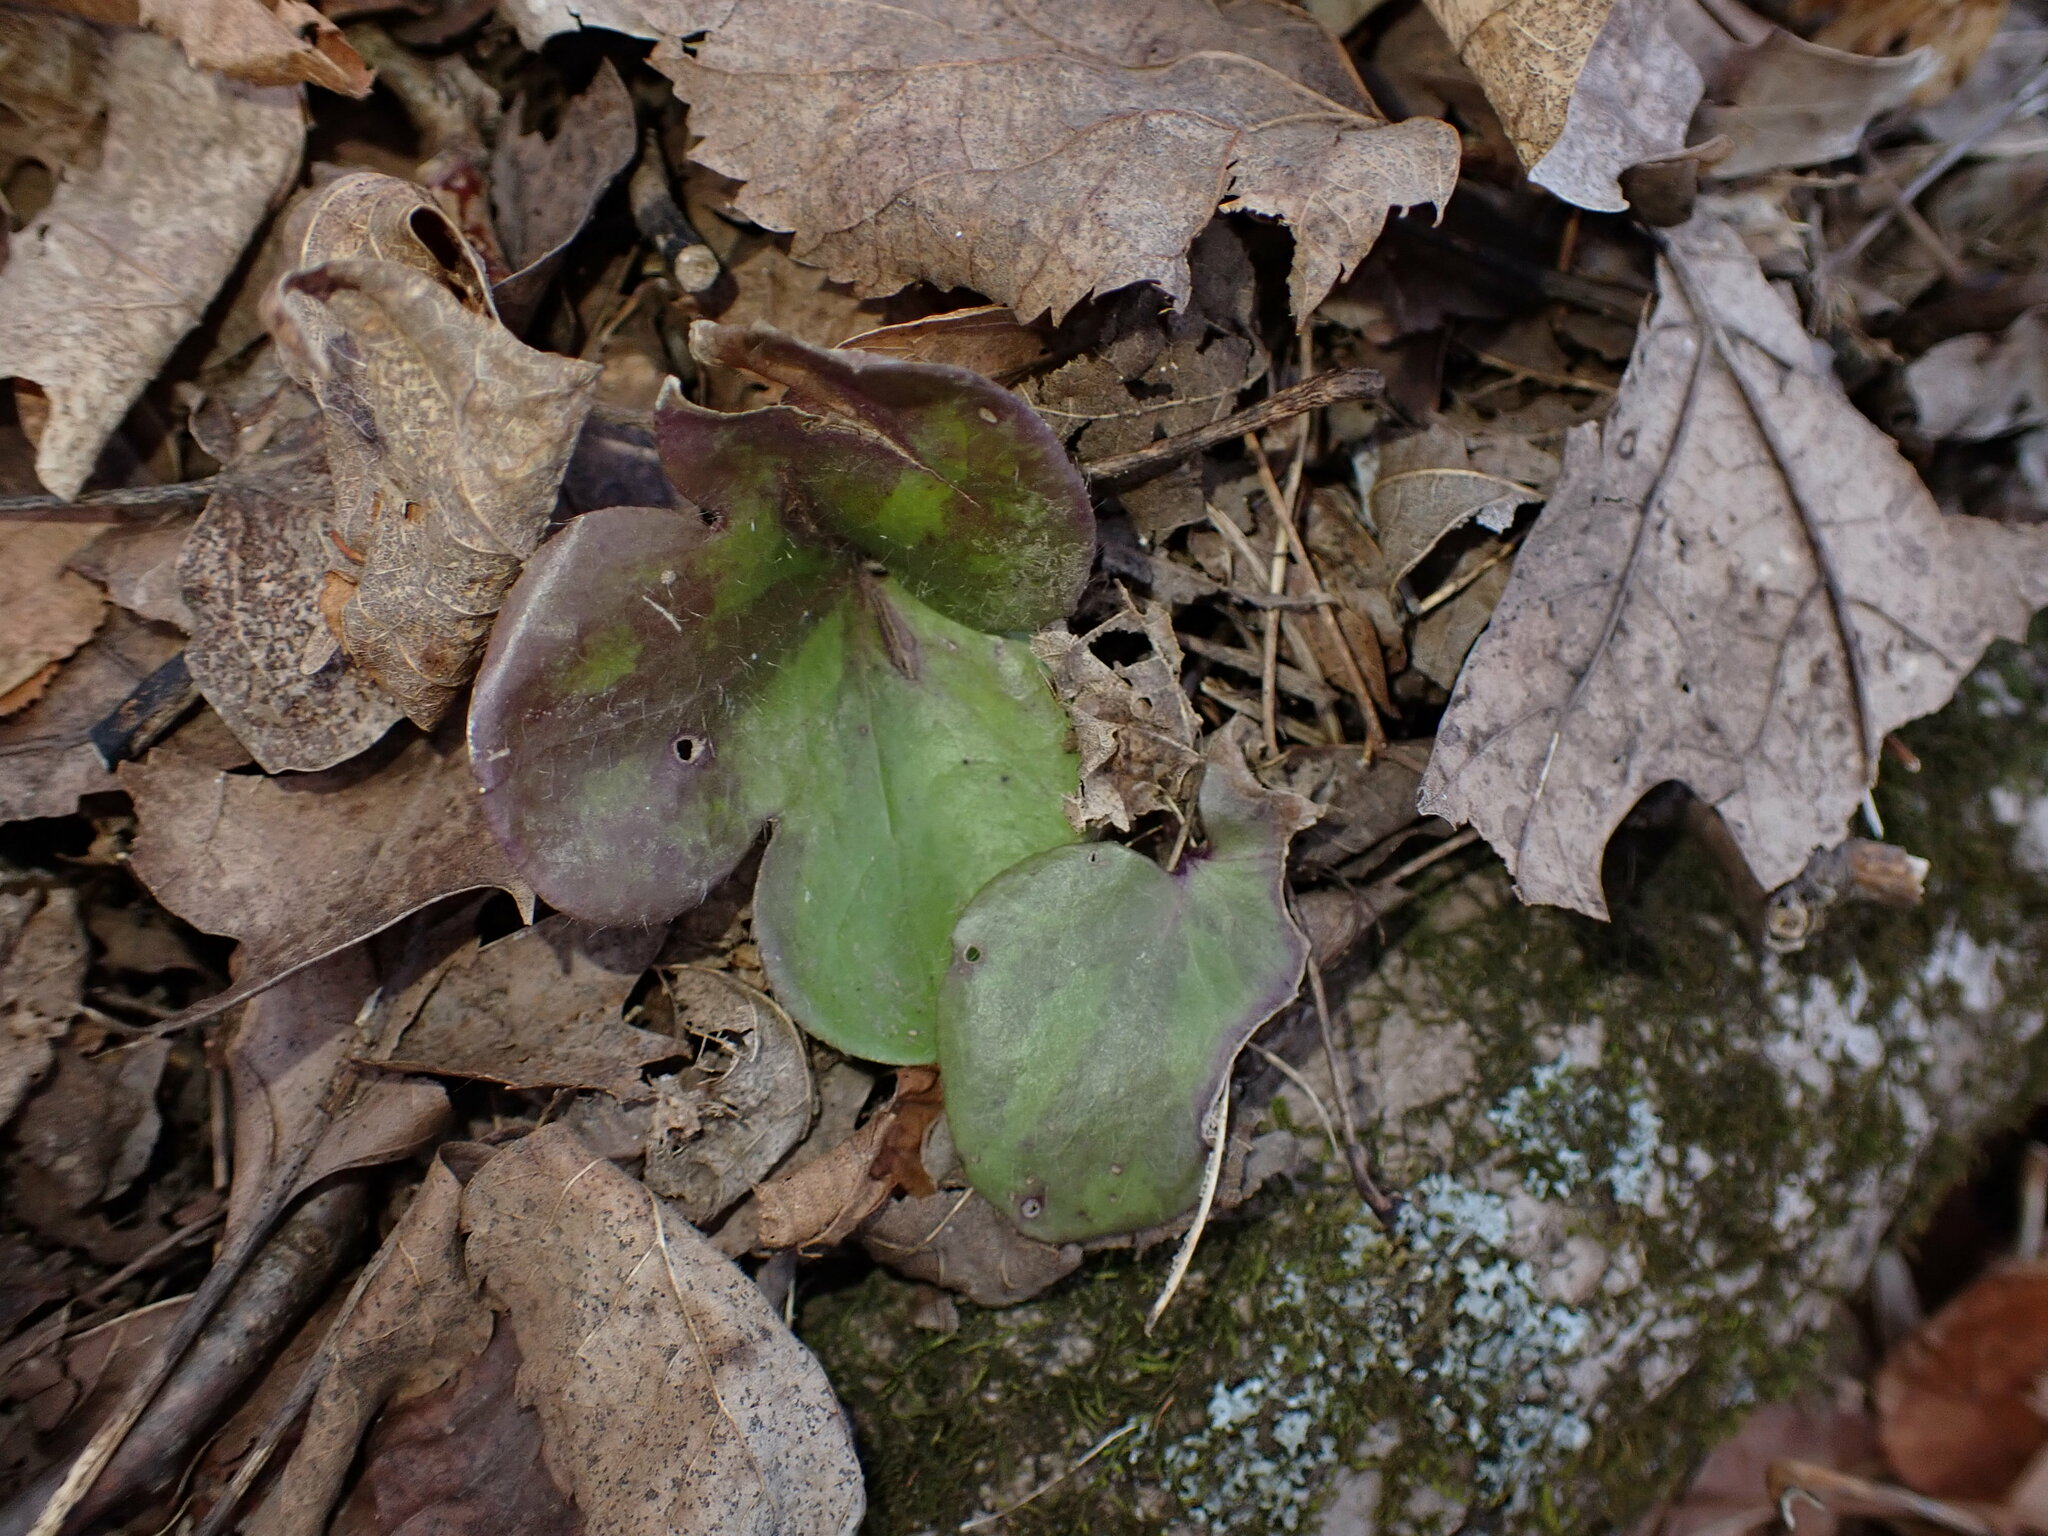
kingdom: Plantae
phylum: Tracheophyta
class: Magnoliopsida
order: Ranunculales
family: Ranunculaceae
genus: Hepatica
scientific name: Hepatica americana
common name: American hepatica
